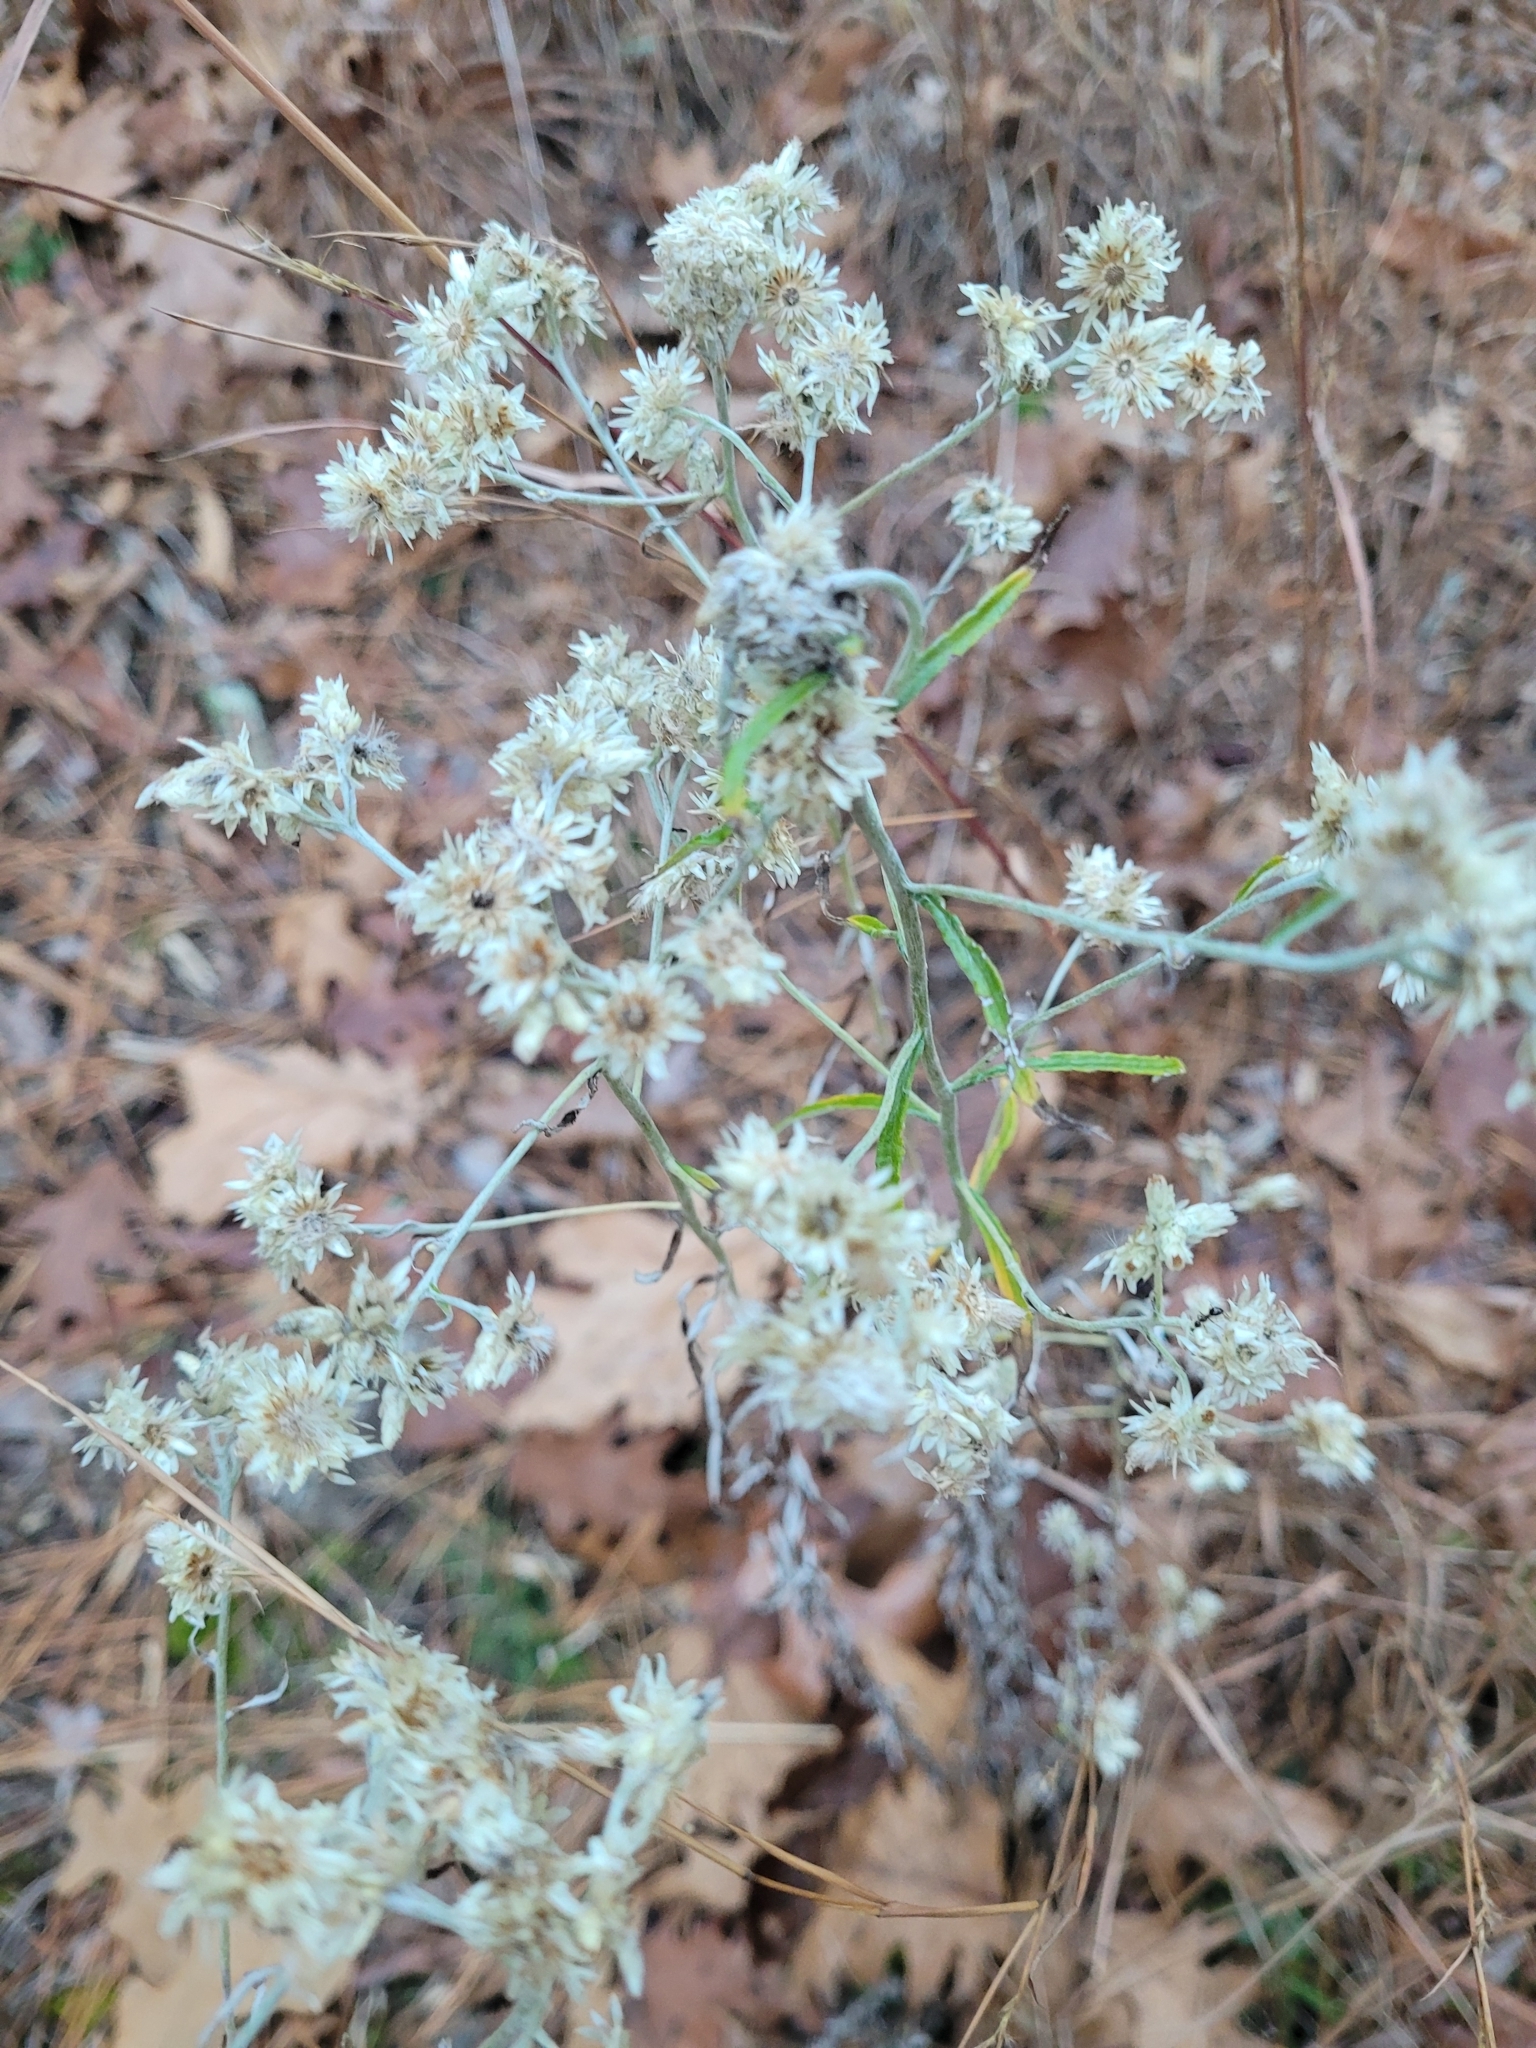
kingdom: Plantae
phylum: Tracheophyta
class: Magnoliopsida
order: Asterales
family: Asteraceae
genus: Pseudognaphalium
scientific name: Pseudognaphalium obtusifolium
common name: Eastern rabbit-tobacco
